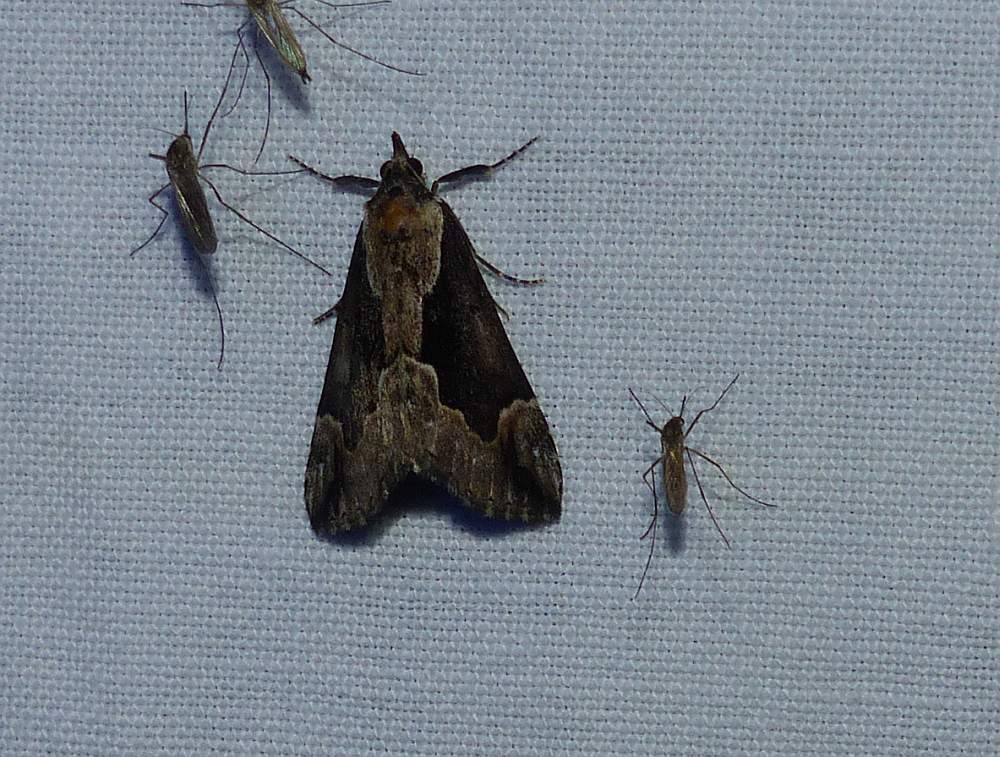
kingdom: Animalia
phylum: Arthropoda
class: Insecta
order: Lepidoptera
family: Erebidae
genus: Hypena
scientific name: Hypena baltimoralis
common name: Baltimore snout
